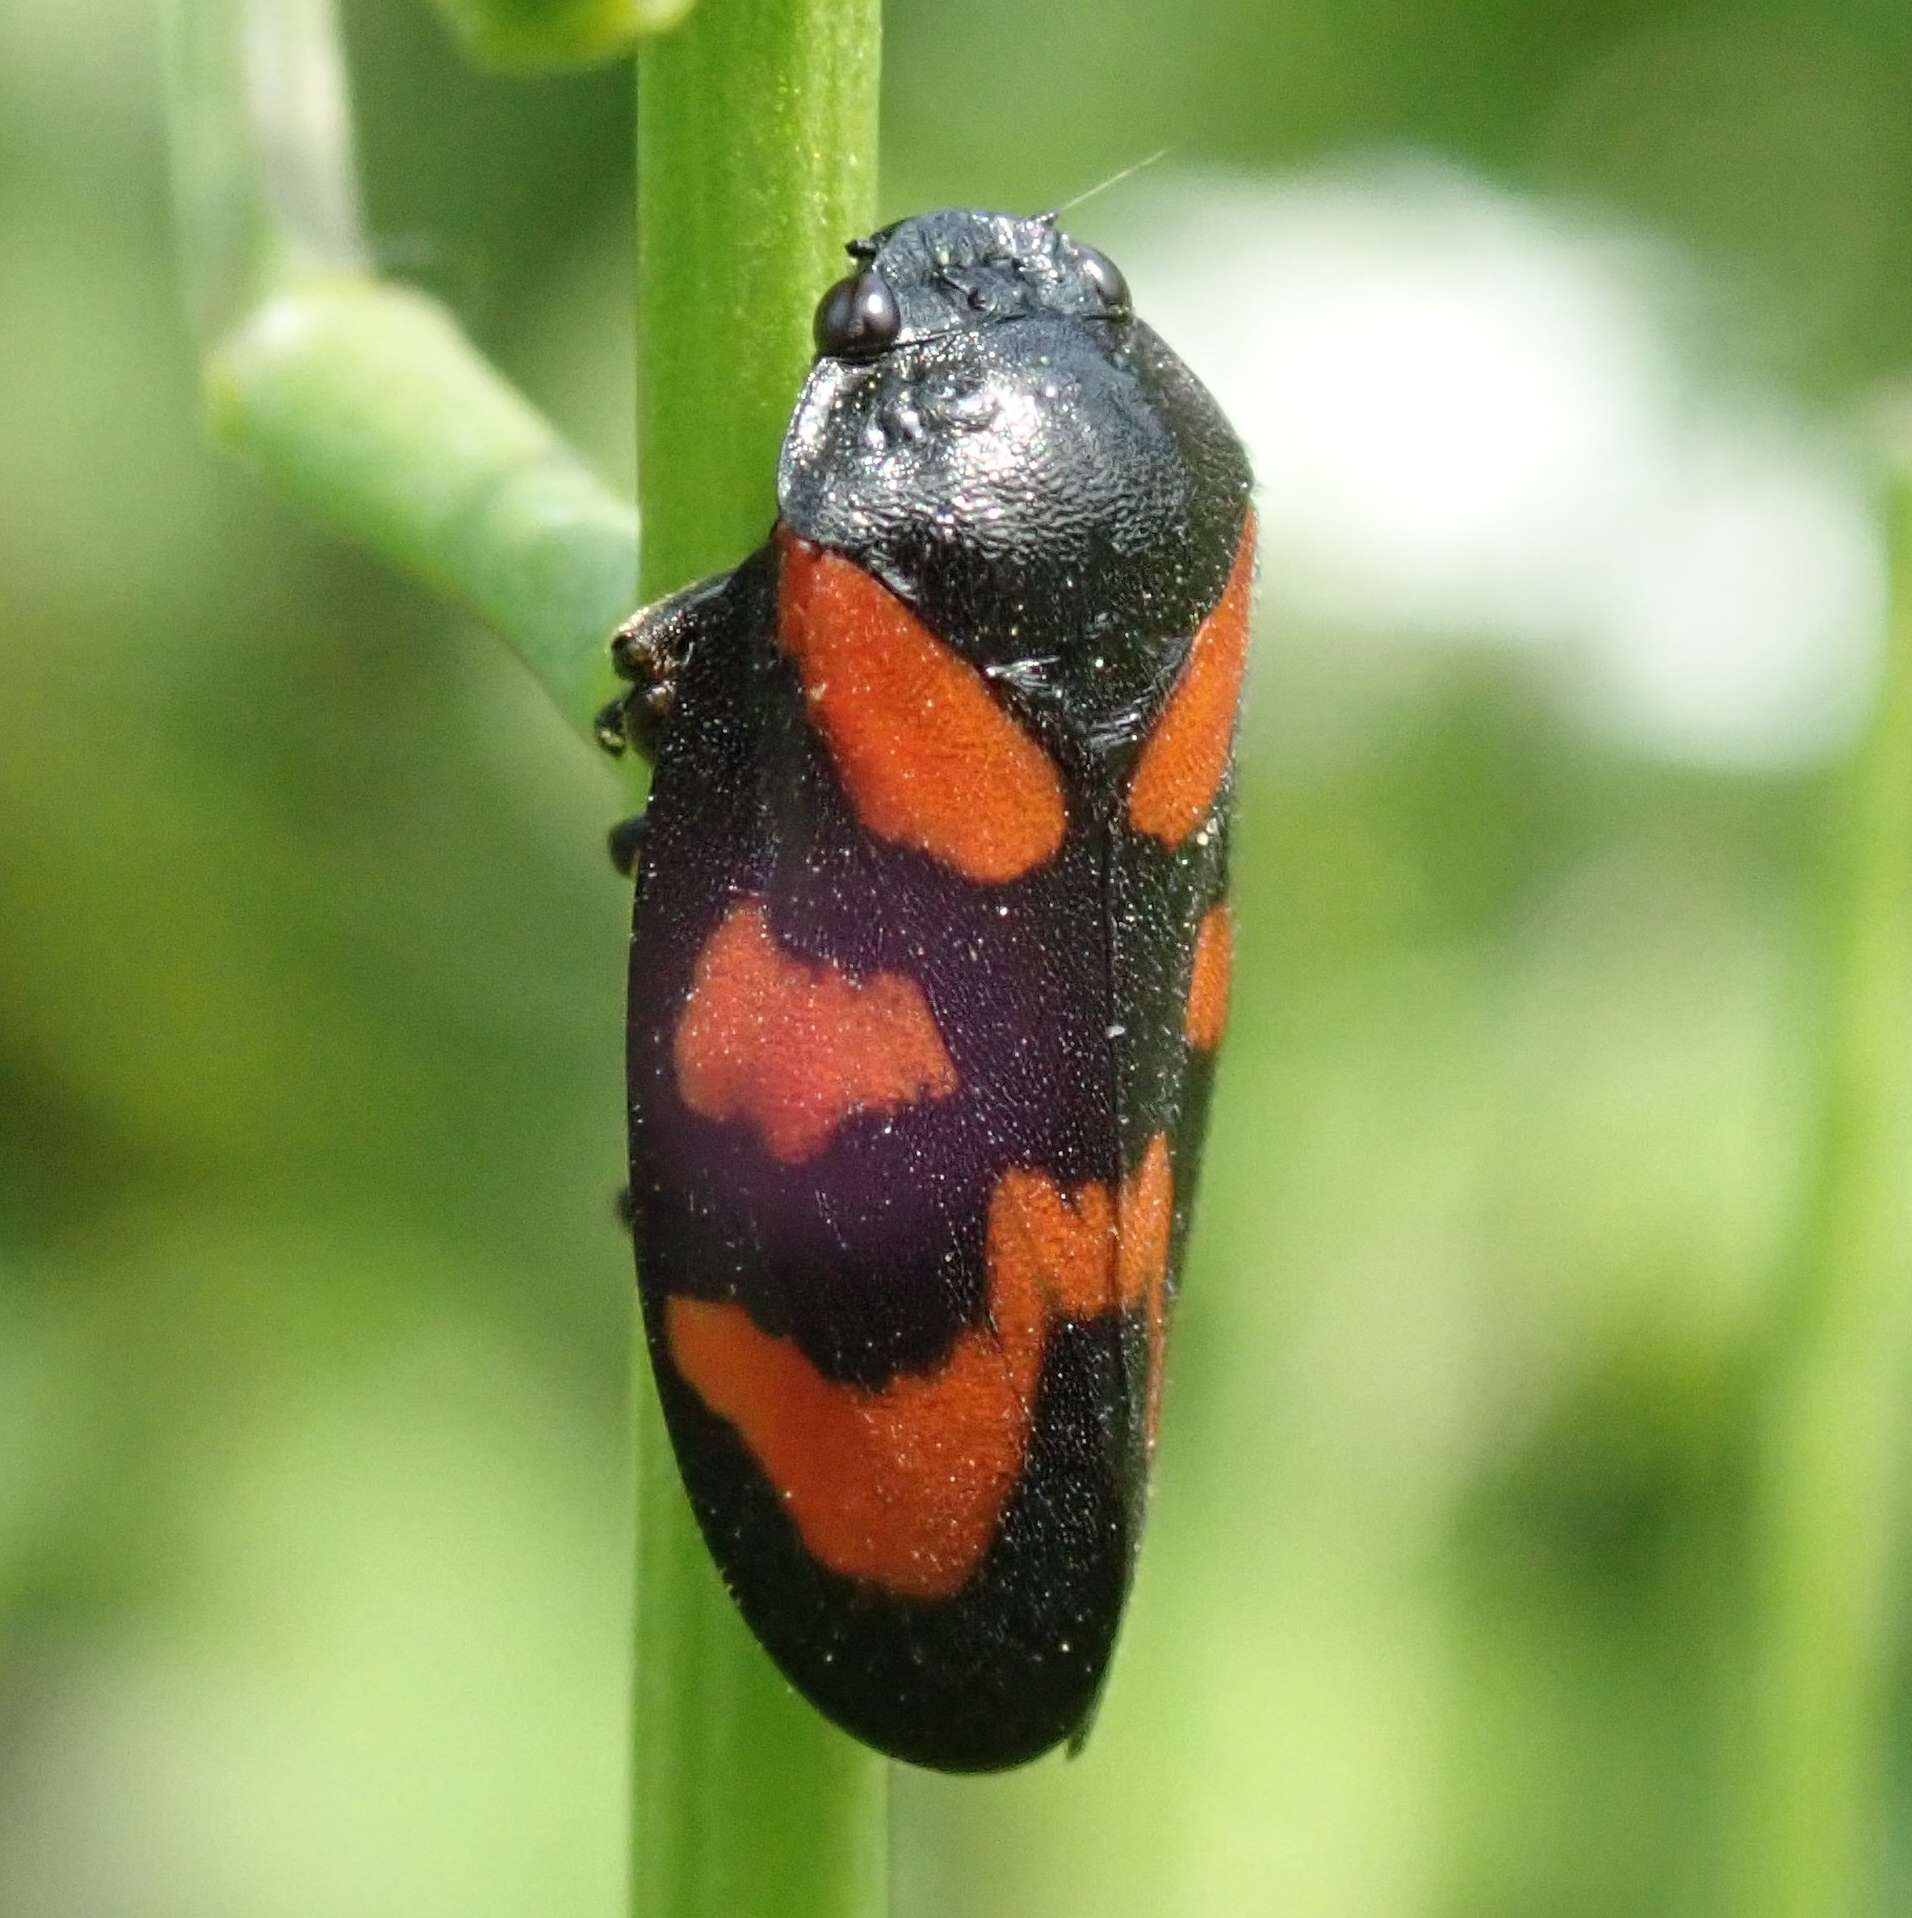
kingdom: Animalia
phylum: Arthropoda
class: Insecta
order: Hemiptera
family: Cercopidae
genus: Cercopis
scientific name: Cercopis vulnerata
